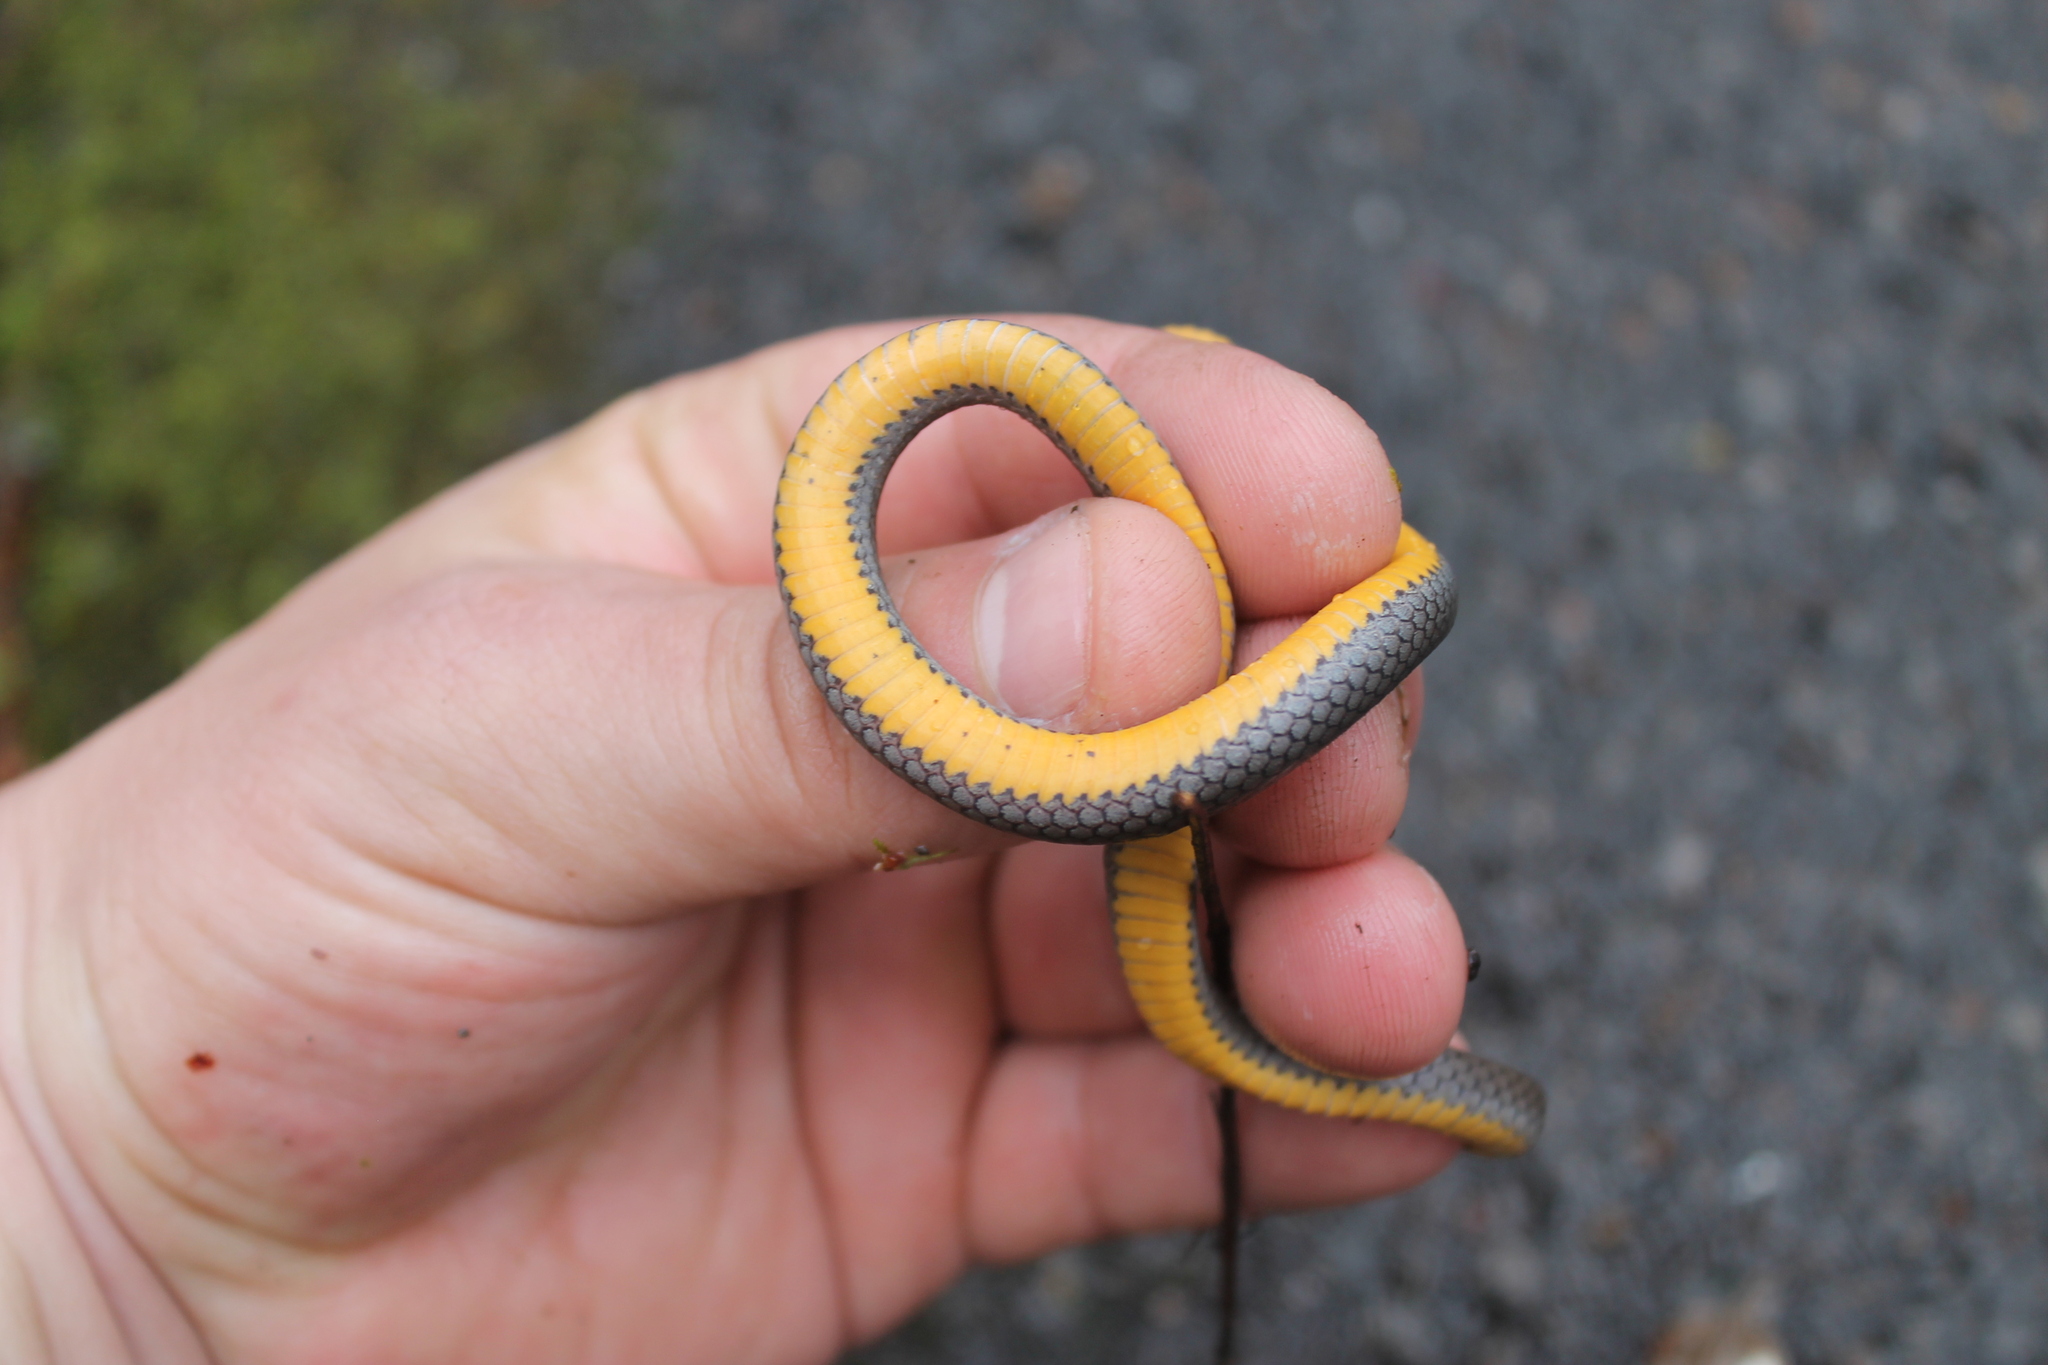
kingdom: Animalia
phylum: Chordata
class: Squamata
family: Colubridae
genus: Diadophis
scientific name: Diadophis punctatus
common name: Ringneck snake
